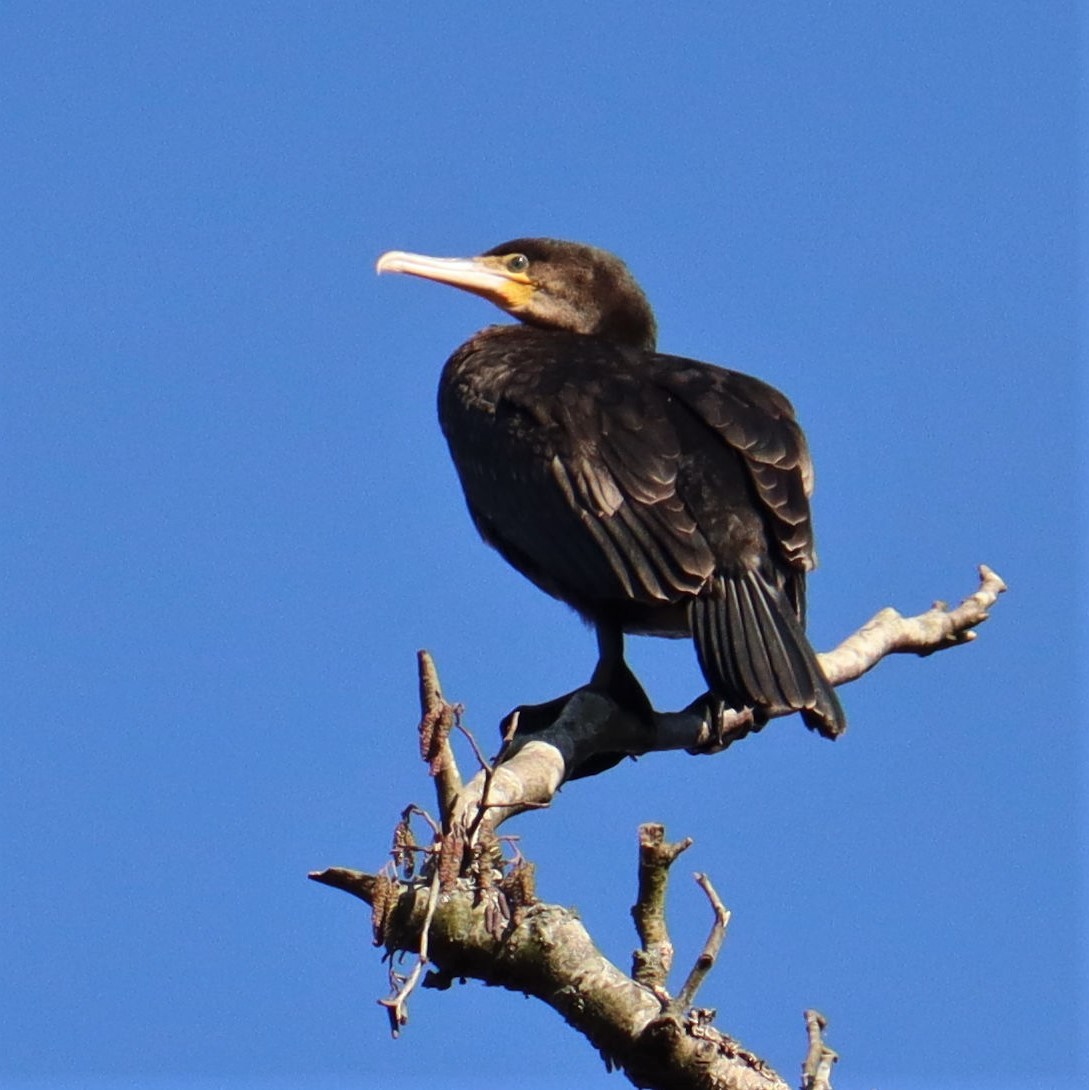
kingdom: Animalia
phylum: Chordata
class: Aves
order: Suliformes
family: Phalacrocoracidae
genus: Phalacrocorax
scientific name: Phalacrocorax carbo
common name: Great cormorant
